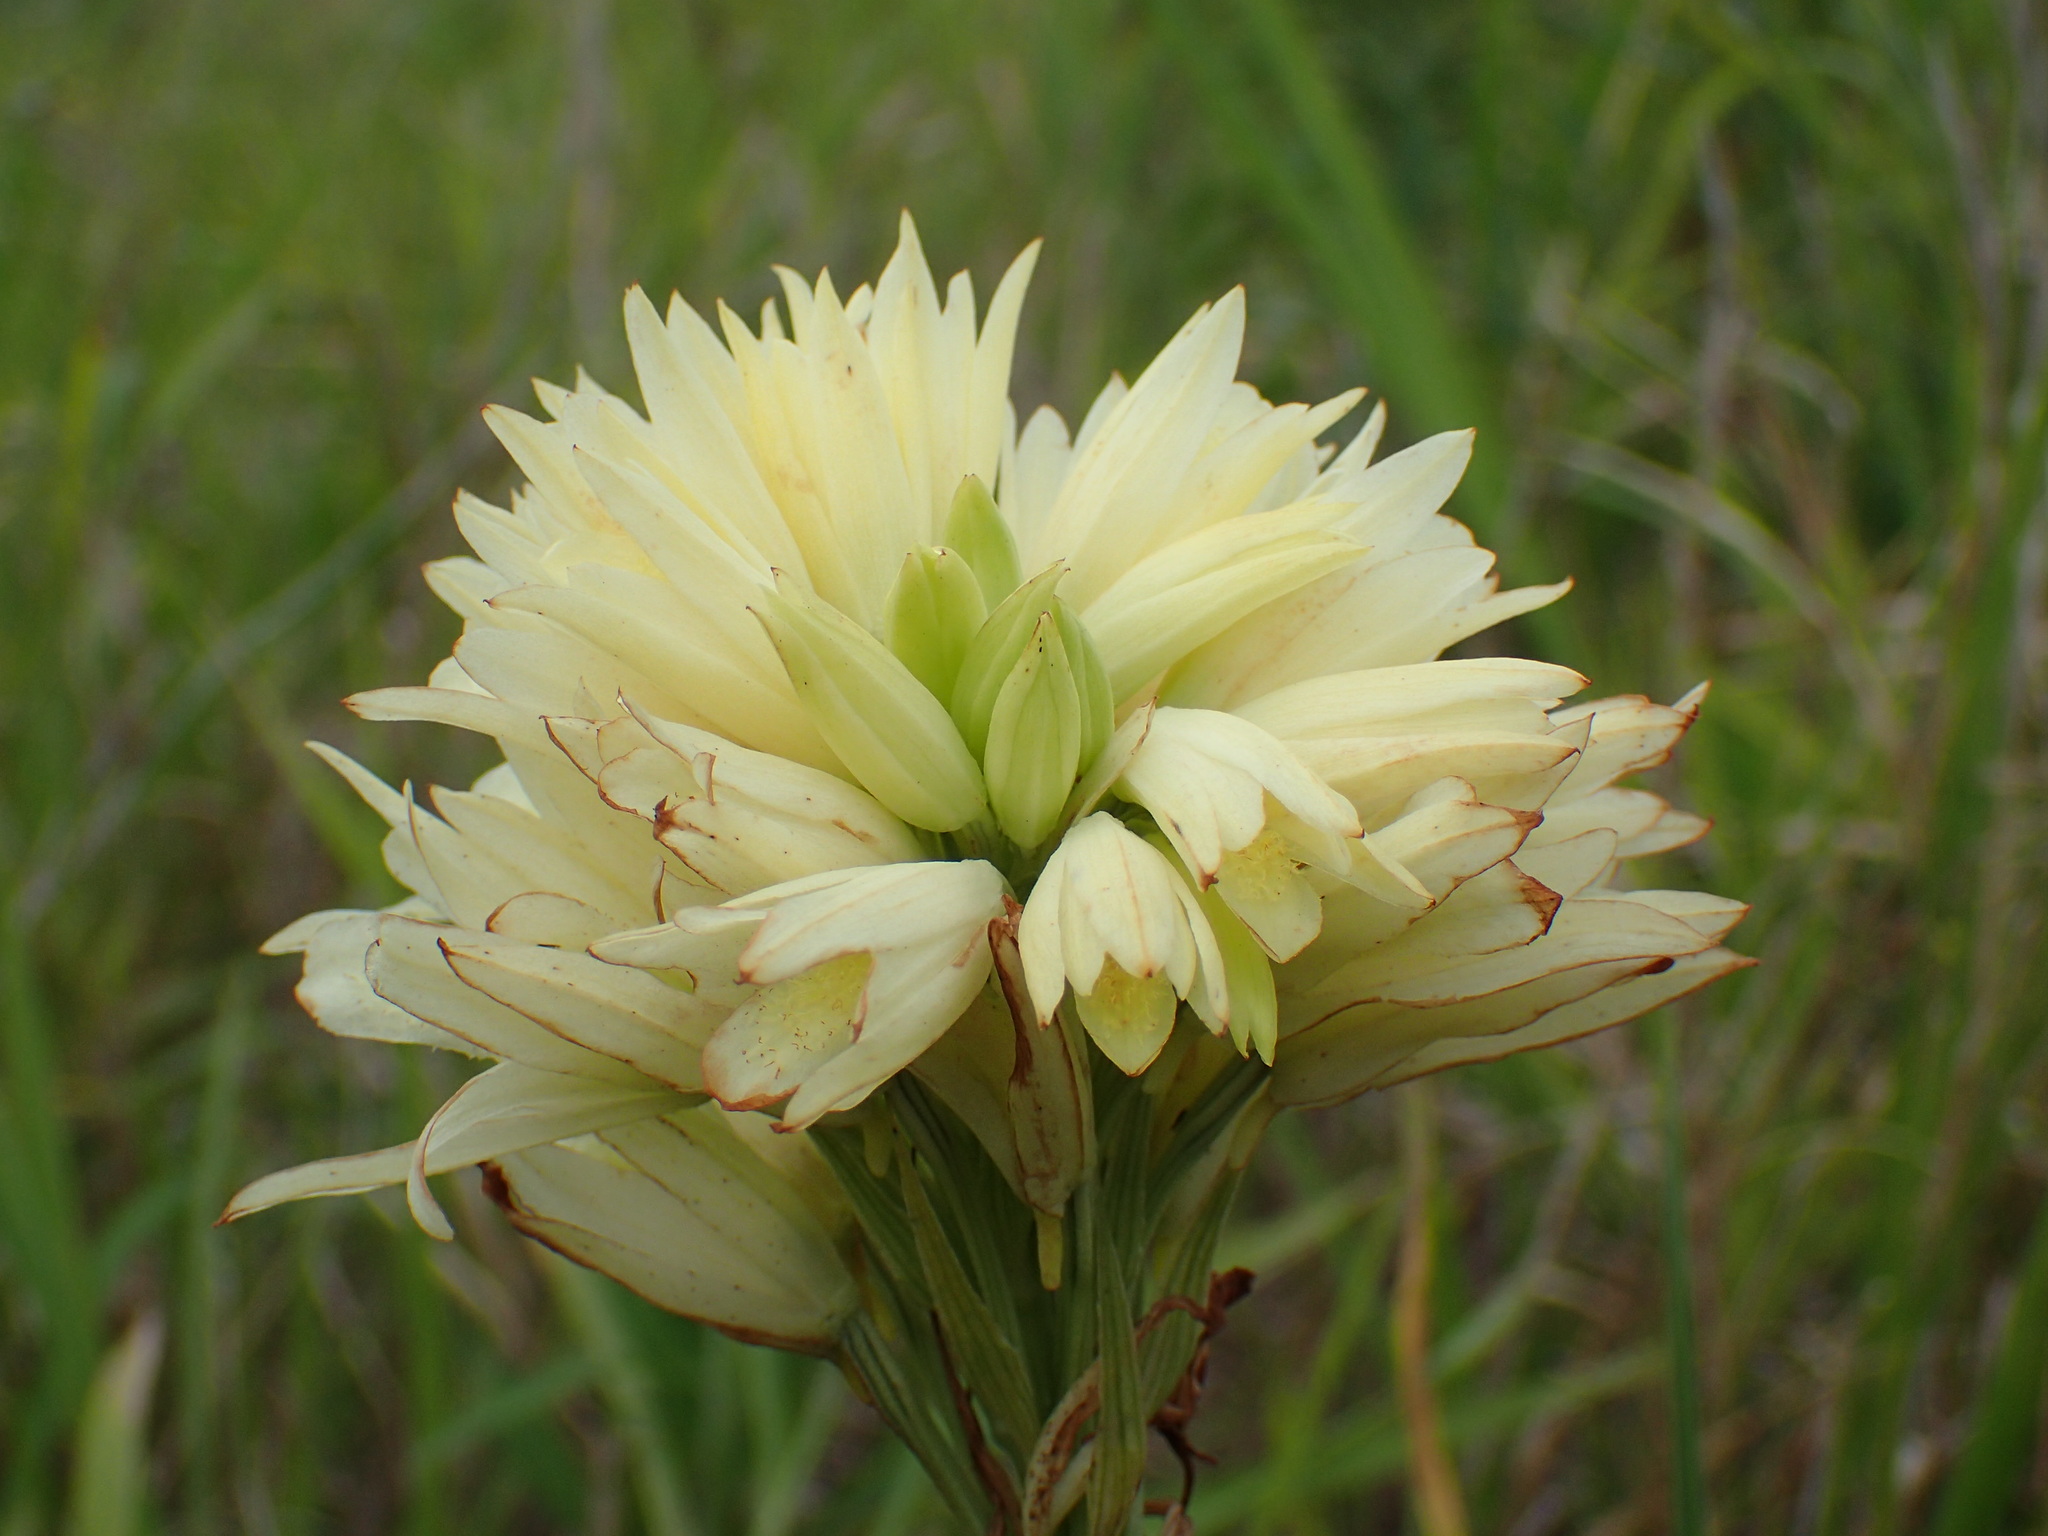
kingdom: Plantae
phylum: Tracheophyta
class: Liliopsida
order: Asparagales
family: Orchidaceae
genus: Eulophia
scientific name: Eulophia ensata
